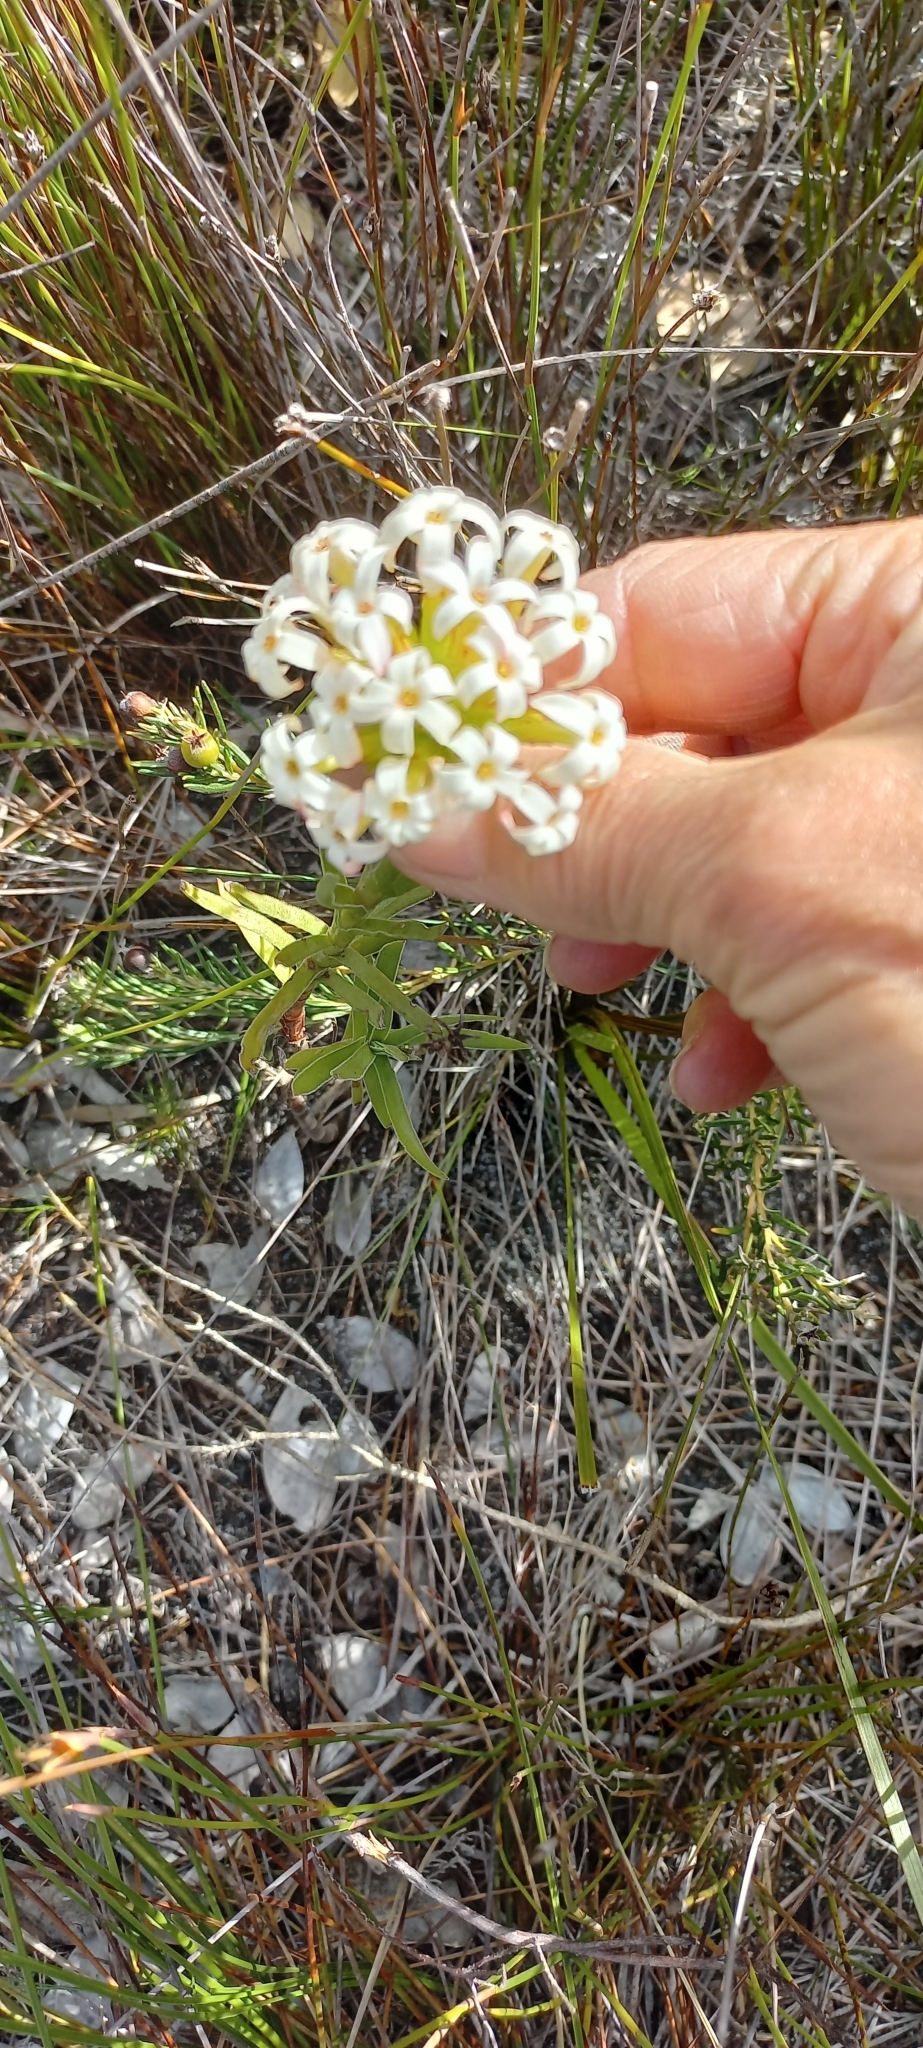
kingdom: Plantae
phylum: Tracheophyta
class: Magnoliopsida
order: Saxifragales
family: Crassulaceae
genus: Crassula
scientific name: Crassula fascicularis
